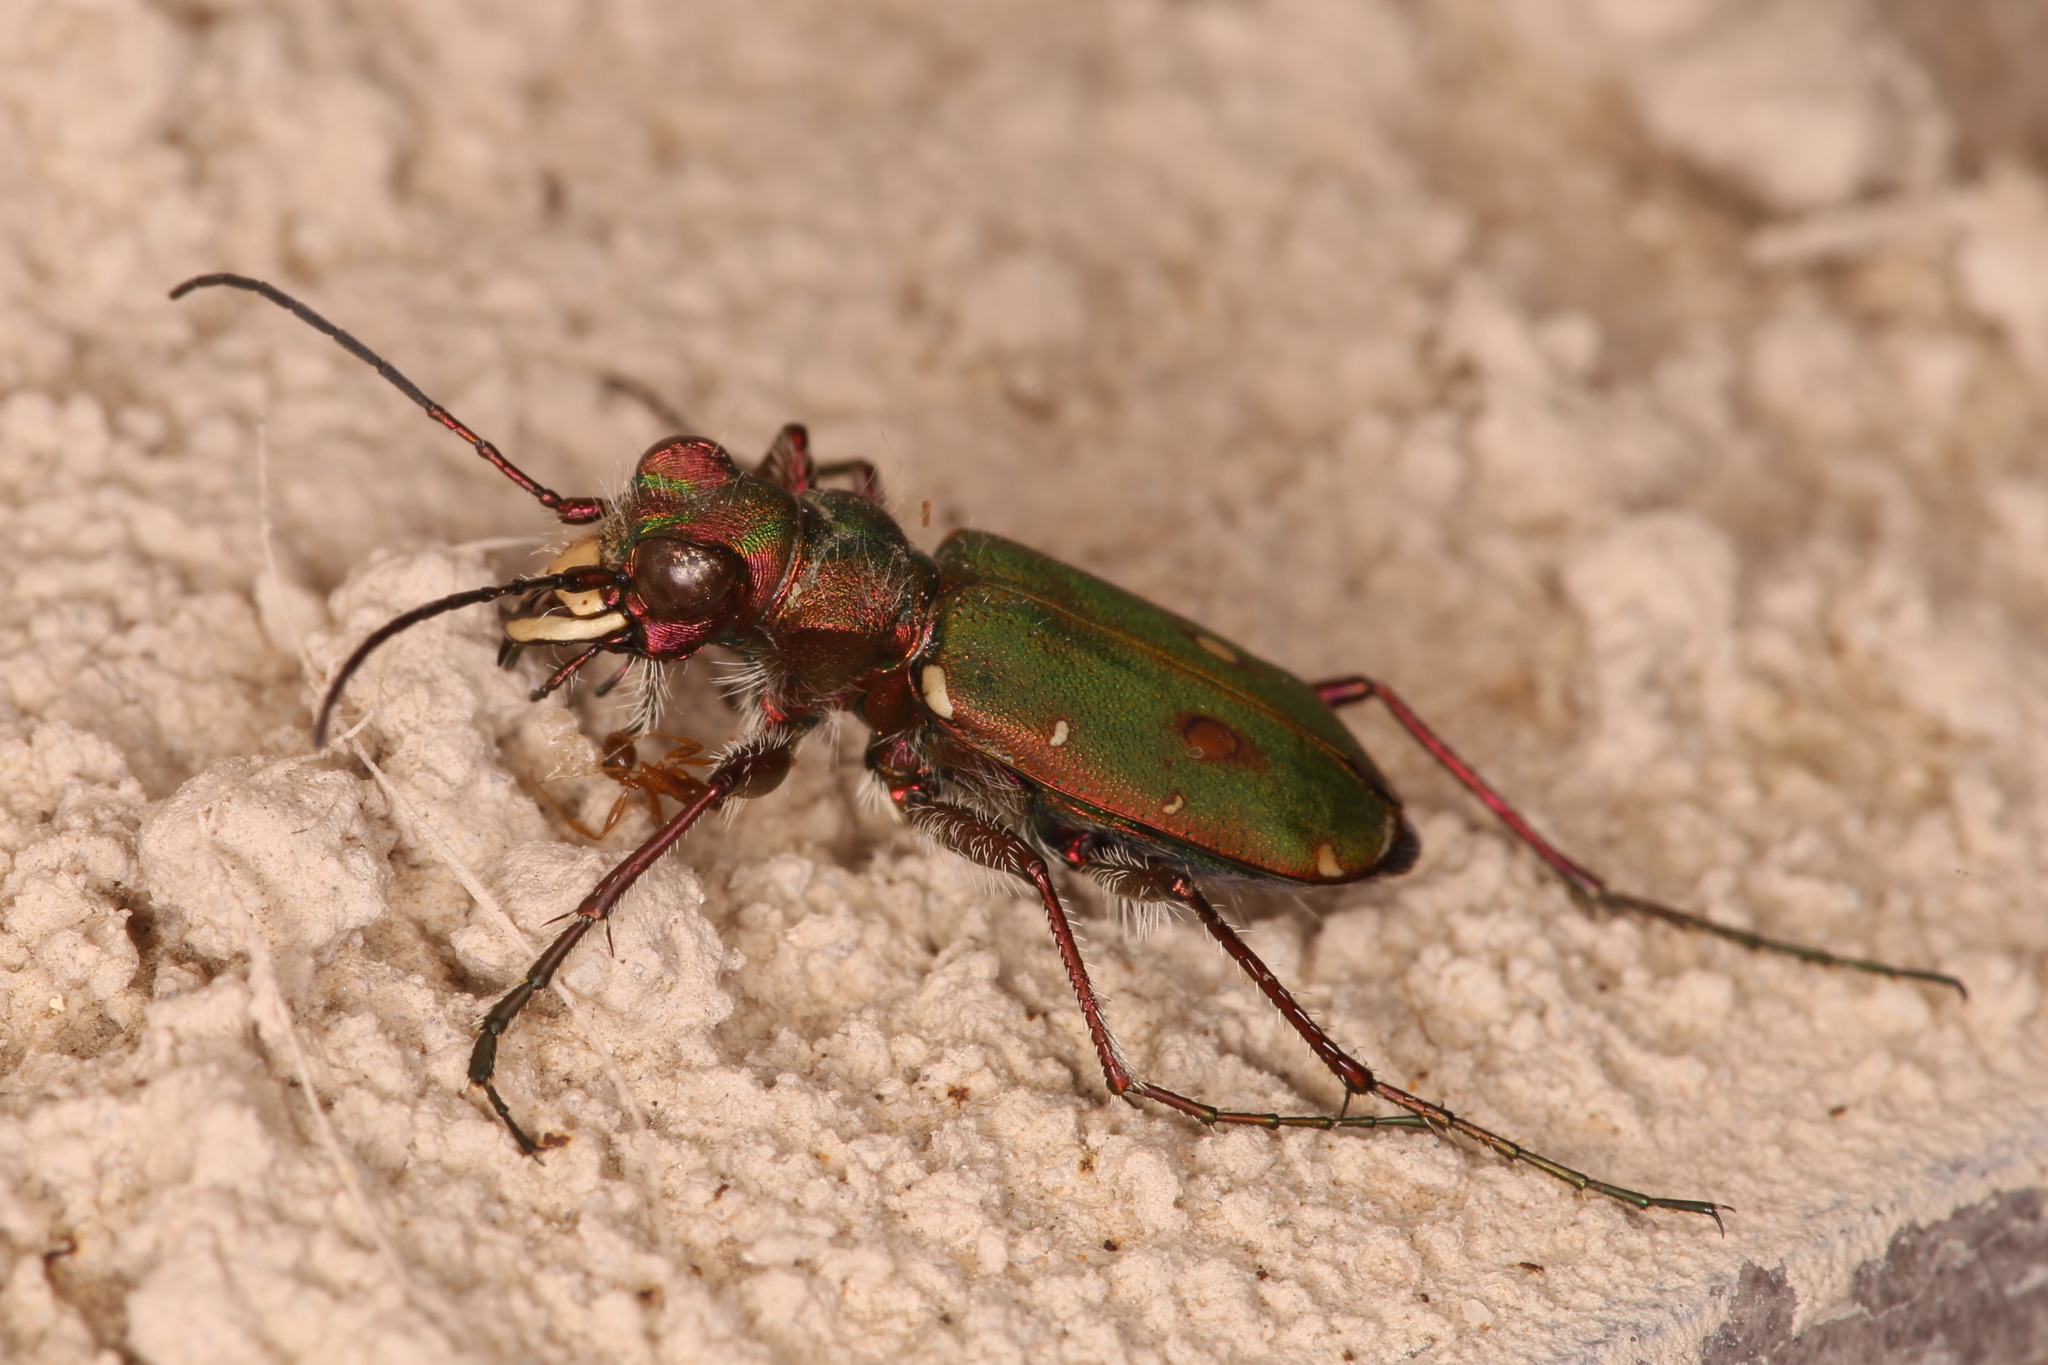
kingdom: Animalia
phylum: Arthropoda
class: Insecta
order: Coleoptera
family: Carabidae
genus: Cicindela
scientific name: Cicindela campestris
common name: Common tiger beetle
